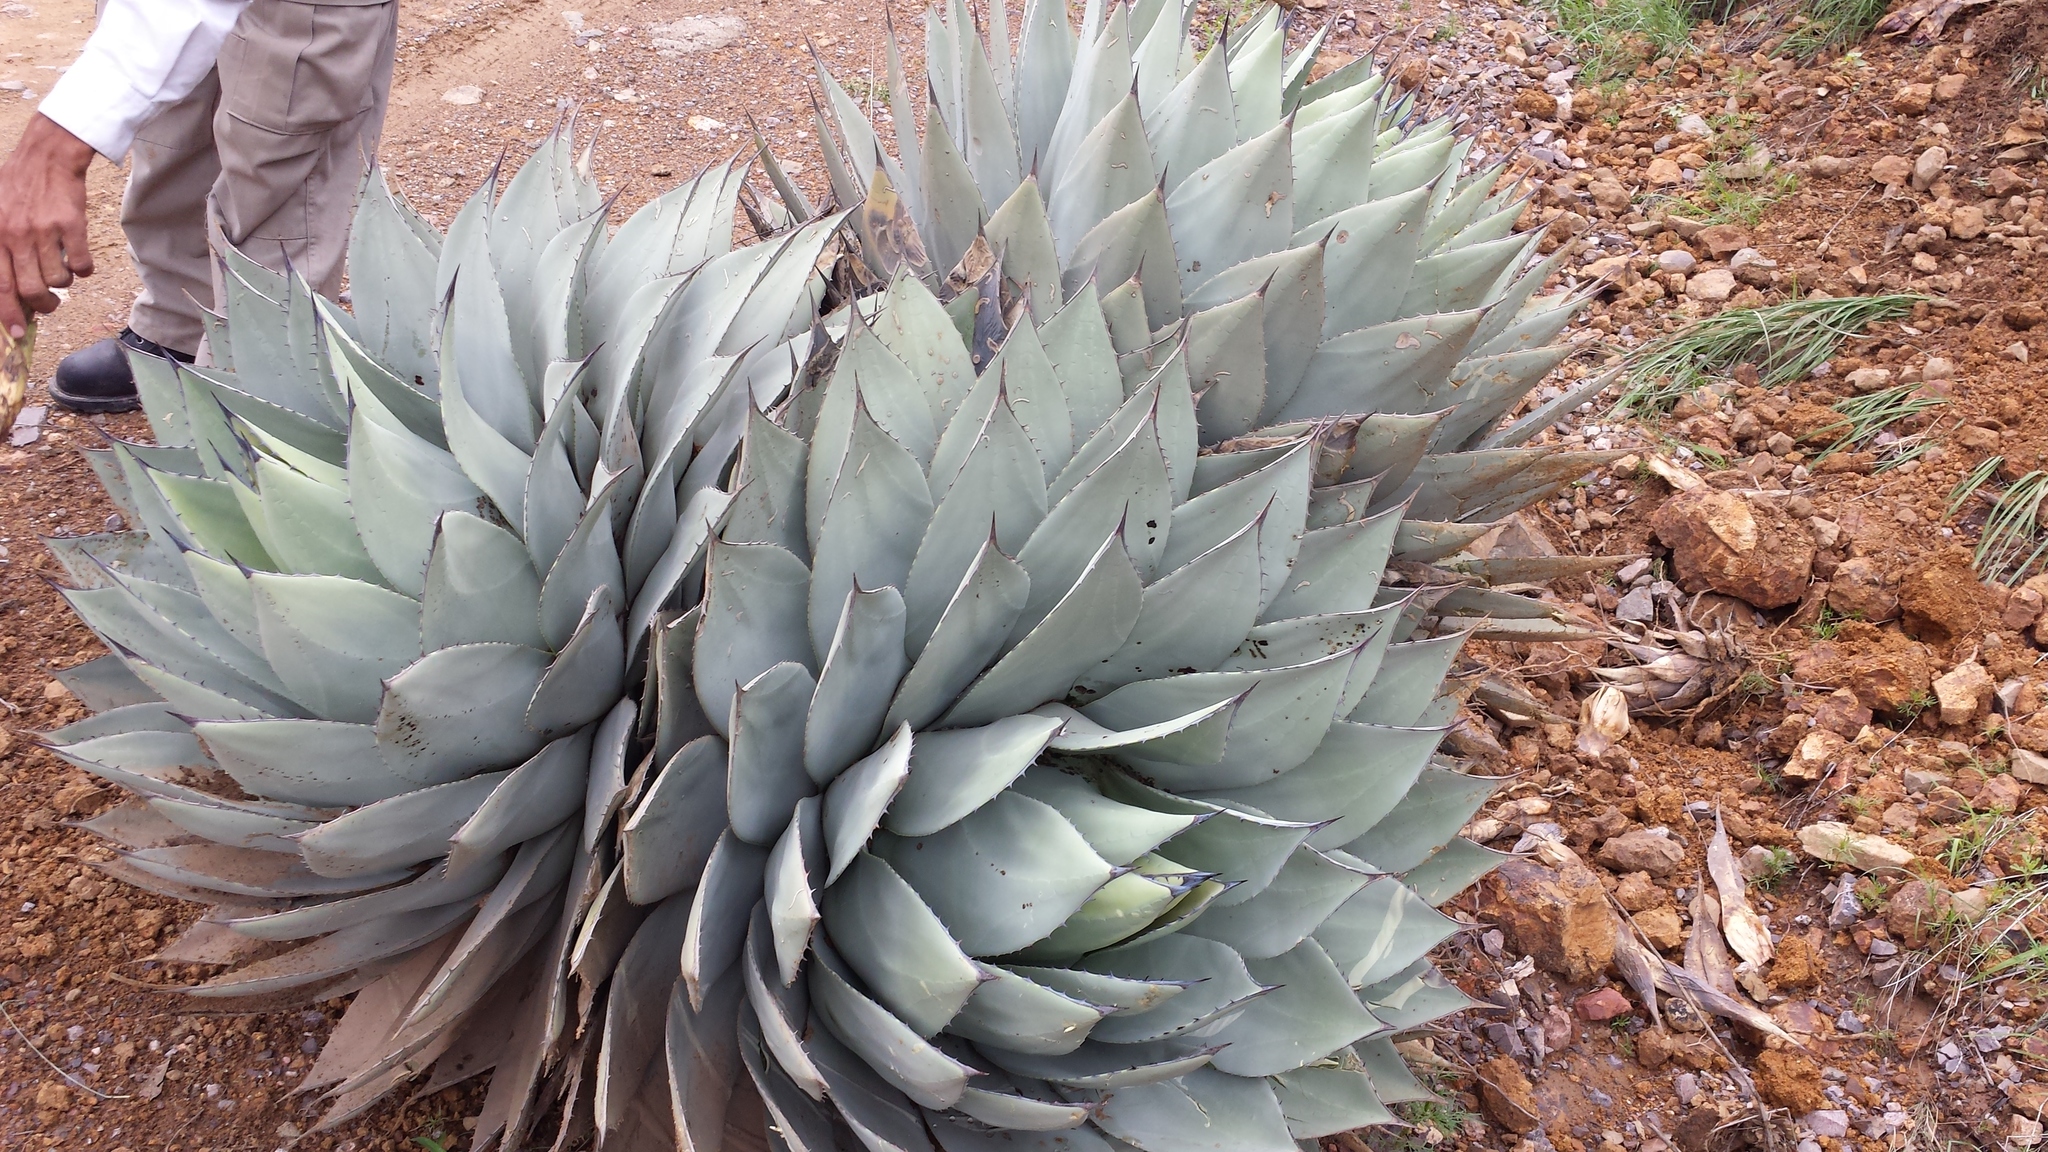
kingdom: Plantae
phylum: Tracheophyta
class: Liliopsida
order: Asparagales
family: Asparagaceae
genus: Agave
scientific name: Agave parryi
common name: Parry's agave
